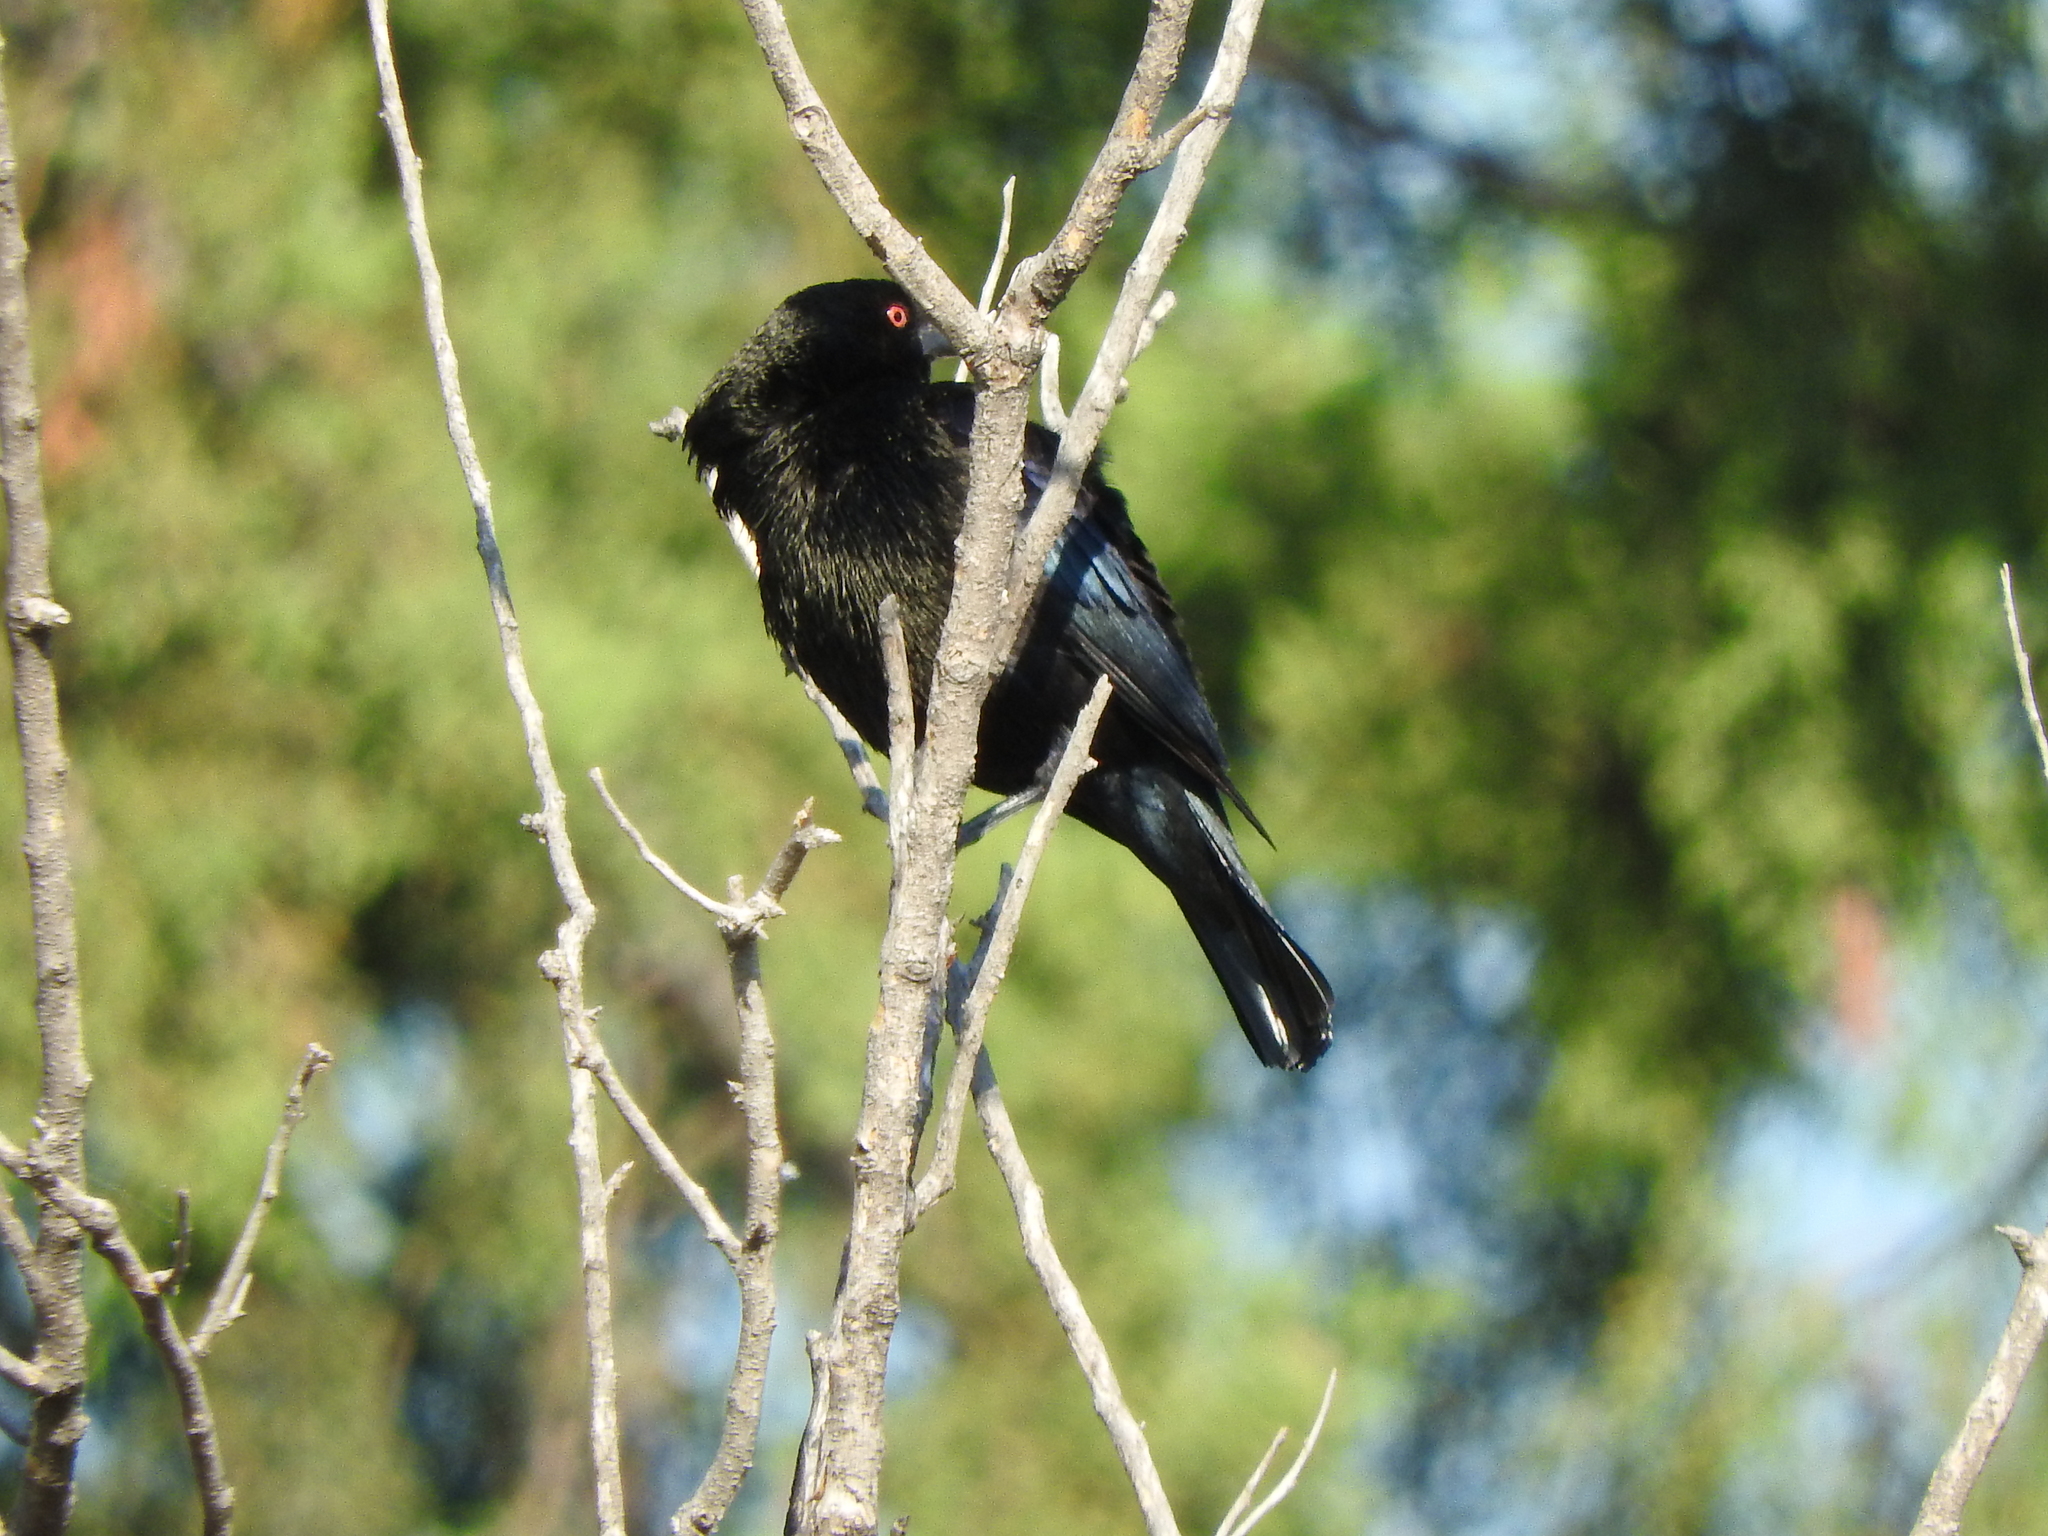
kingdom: Animalia
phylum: Chordata
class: Aves
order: Passeriformes
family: Icteridae
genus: Molothrus
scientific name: Molothrus aeneus
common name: Bronzed cowbird
